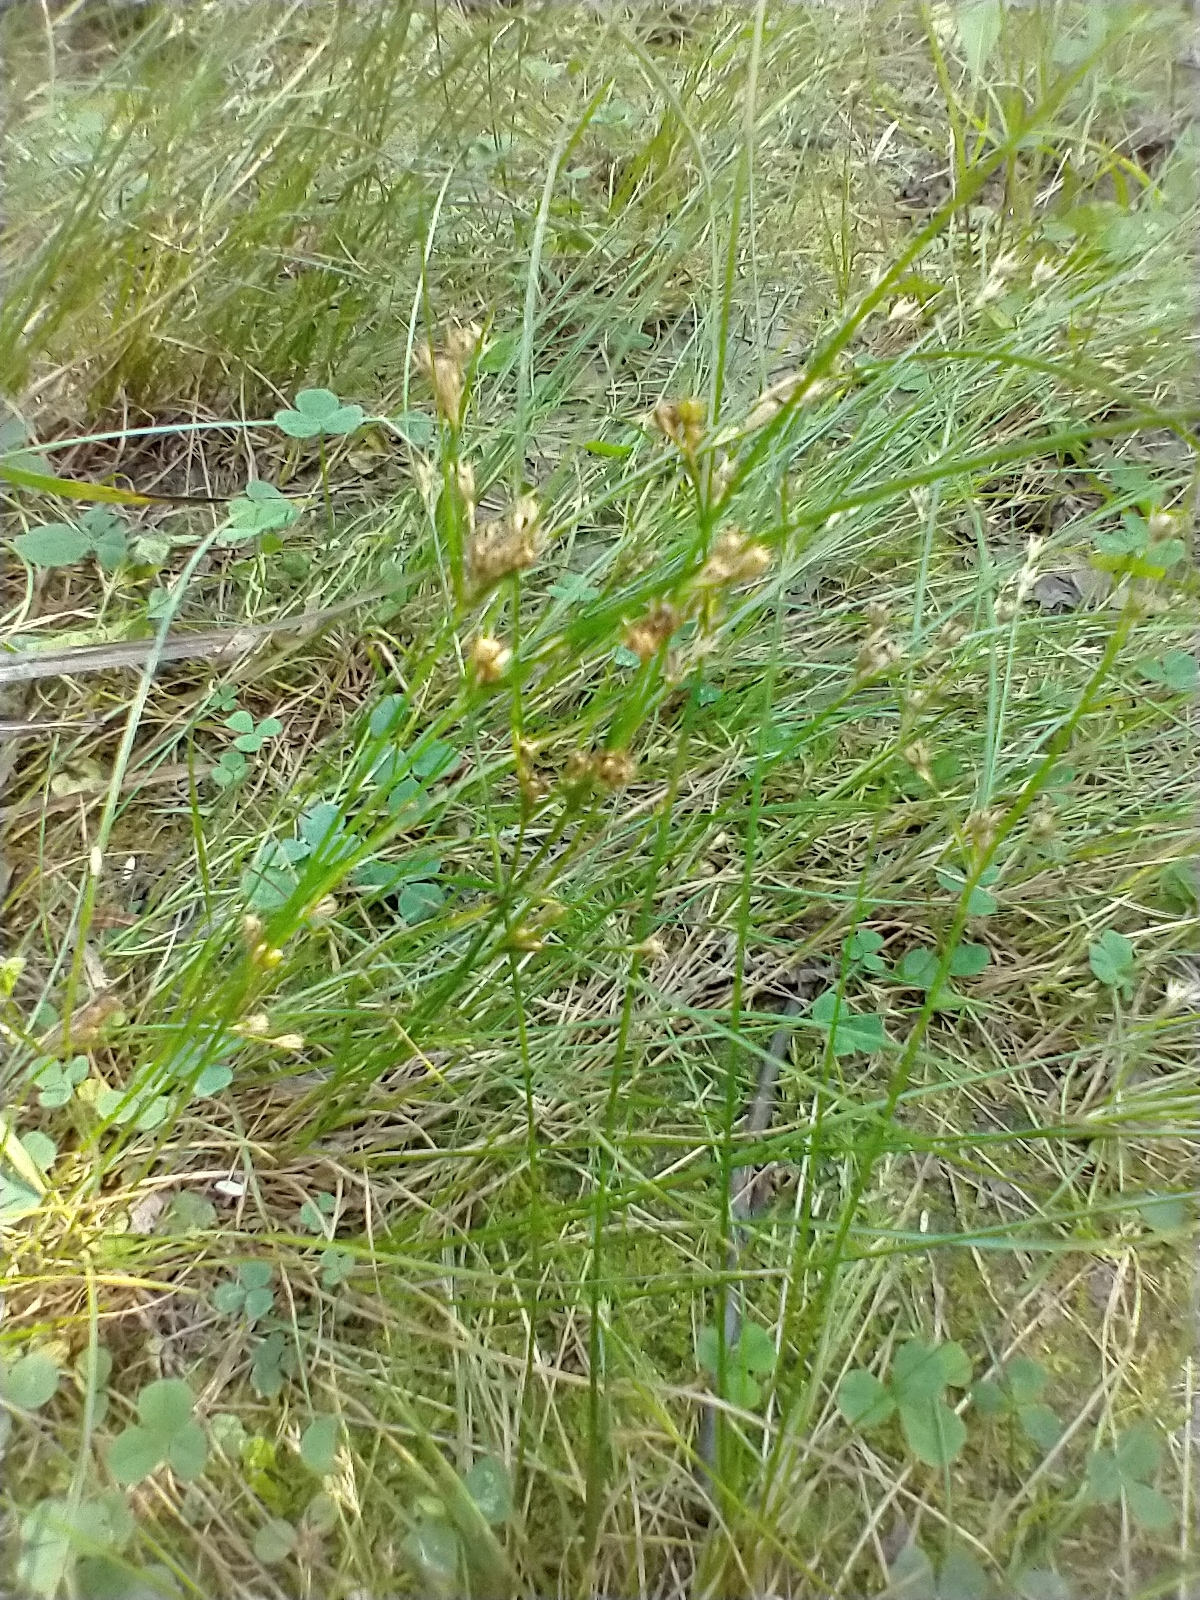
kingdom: Plantae
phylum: Tracheophyta
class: Liliopsida
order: Poales
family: Juncaceae
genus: Juncus
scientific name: Juncus tenuis
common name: Slender rush
